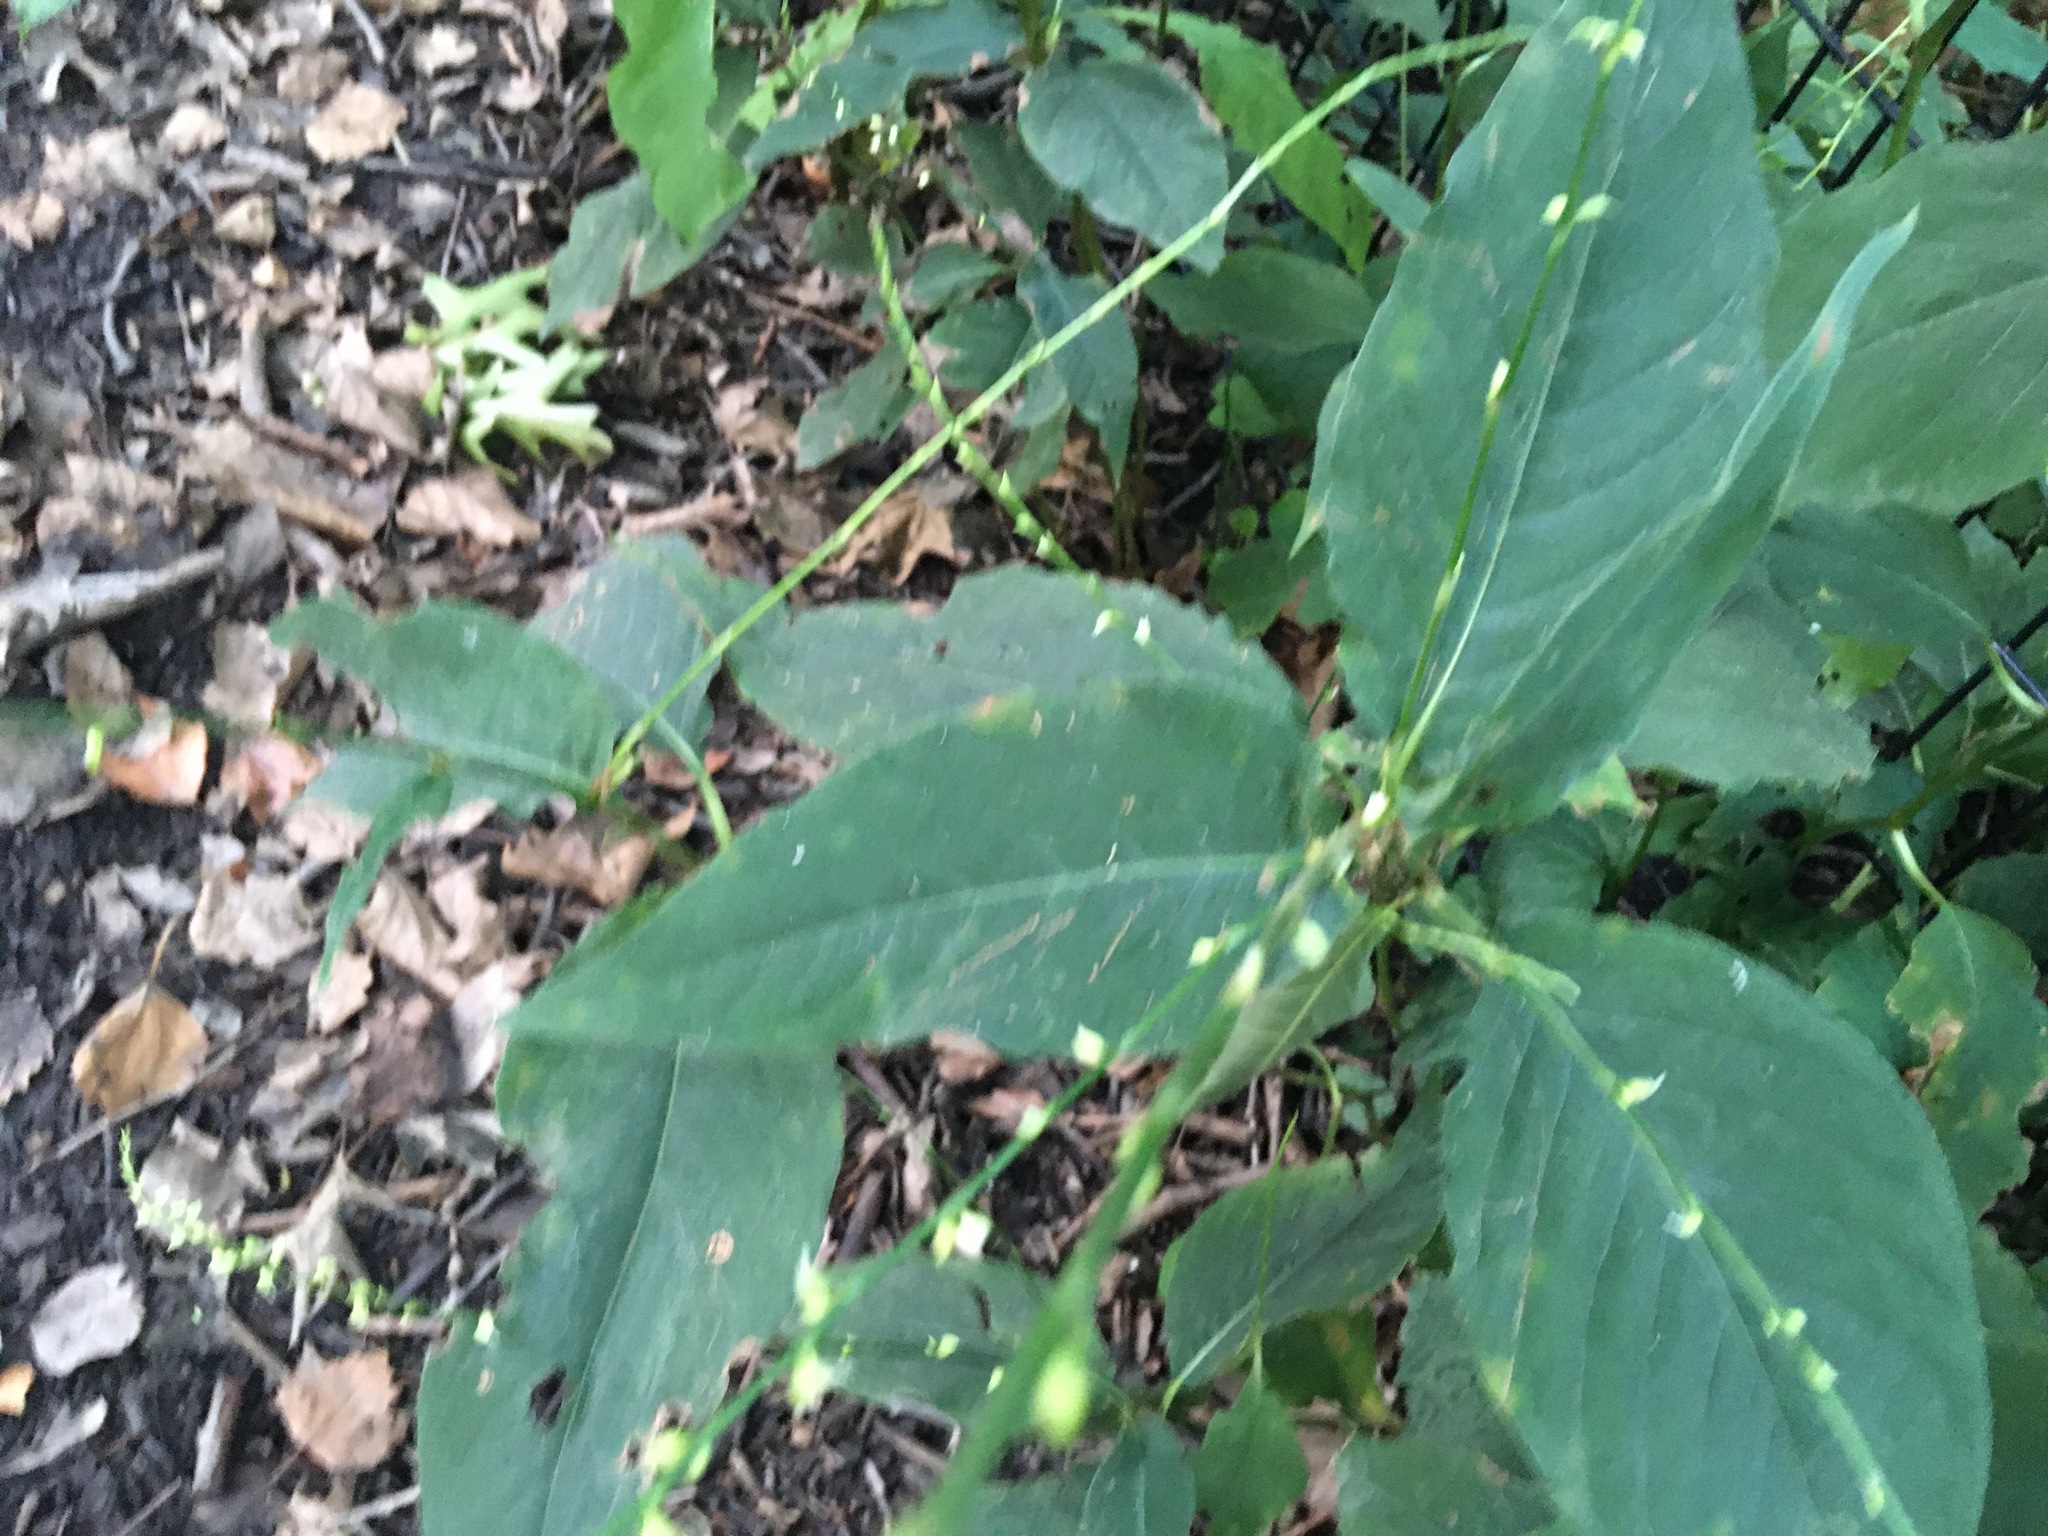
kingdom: Plantae
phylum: Tracheophyta
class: Magnoliopsida
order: Caryophyllales
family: Polygonaceae
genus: Persicaria
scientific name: Persicaria virginiana
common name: Jumpseed
